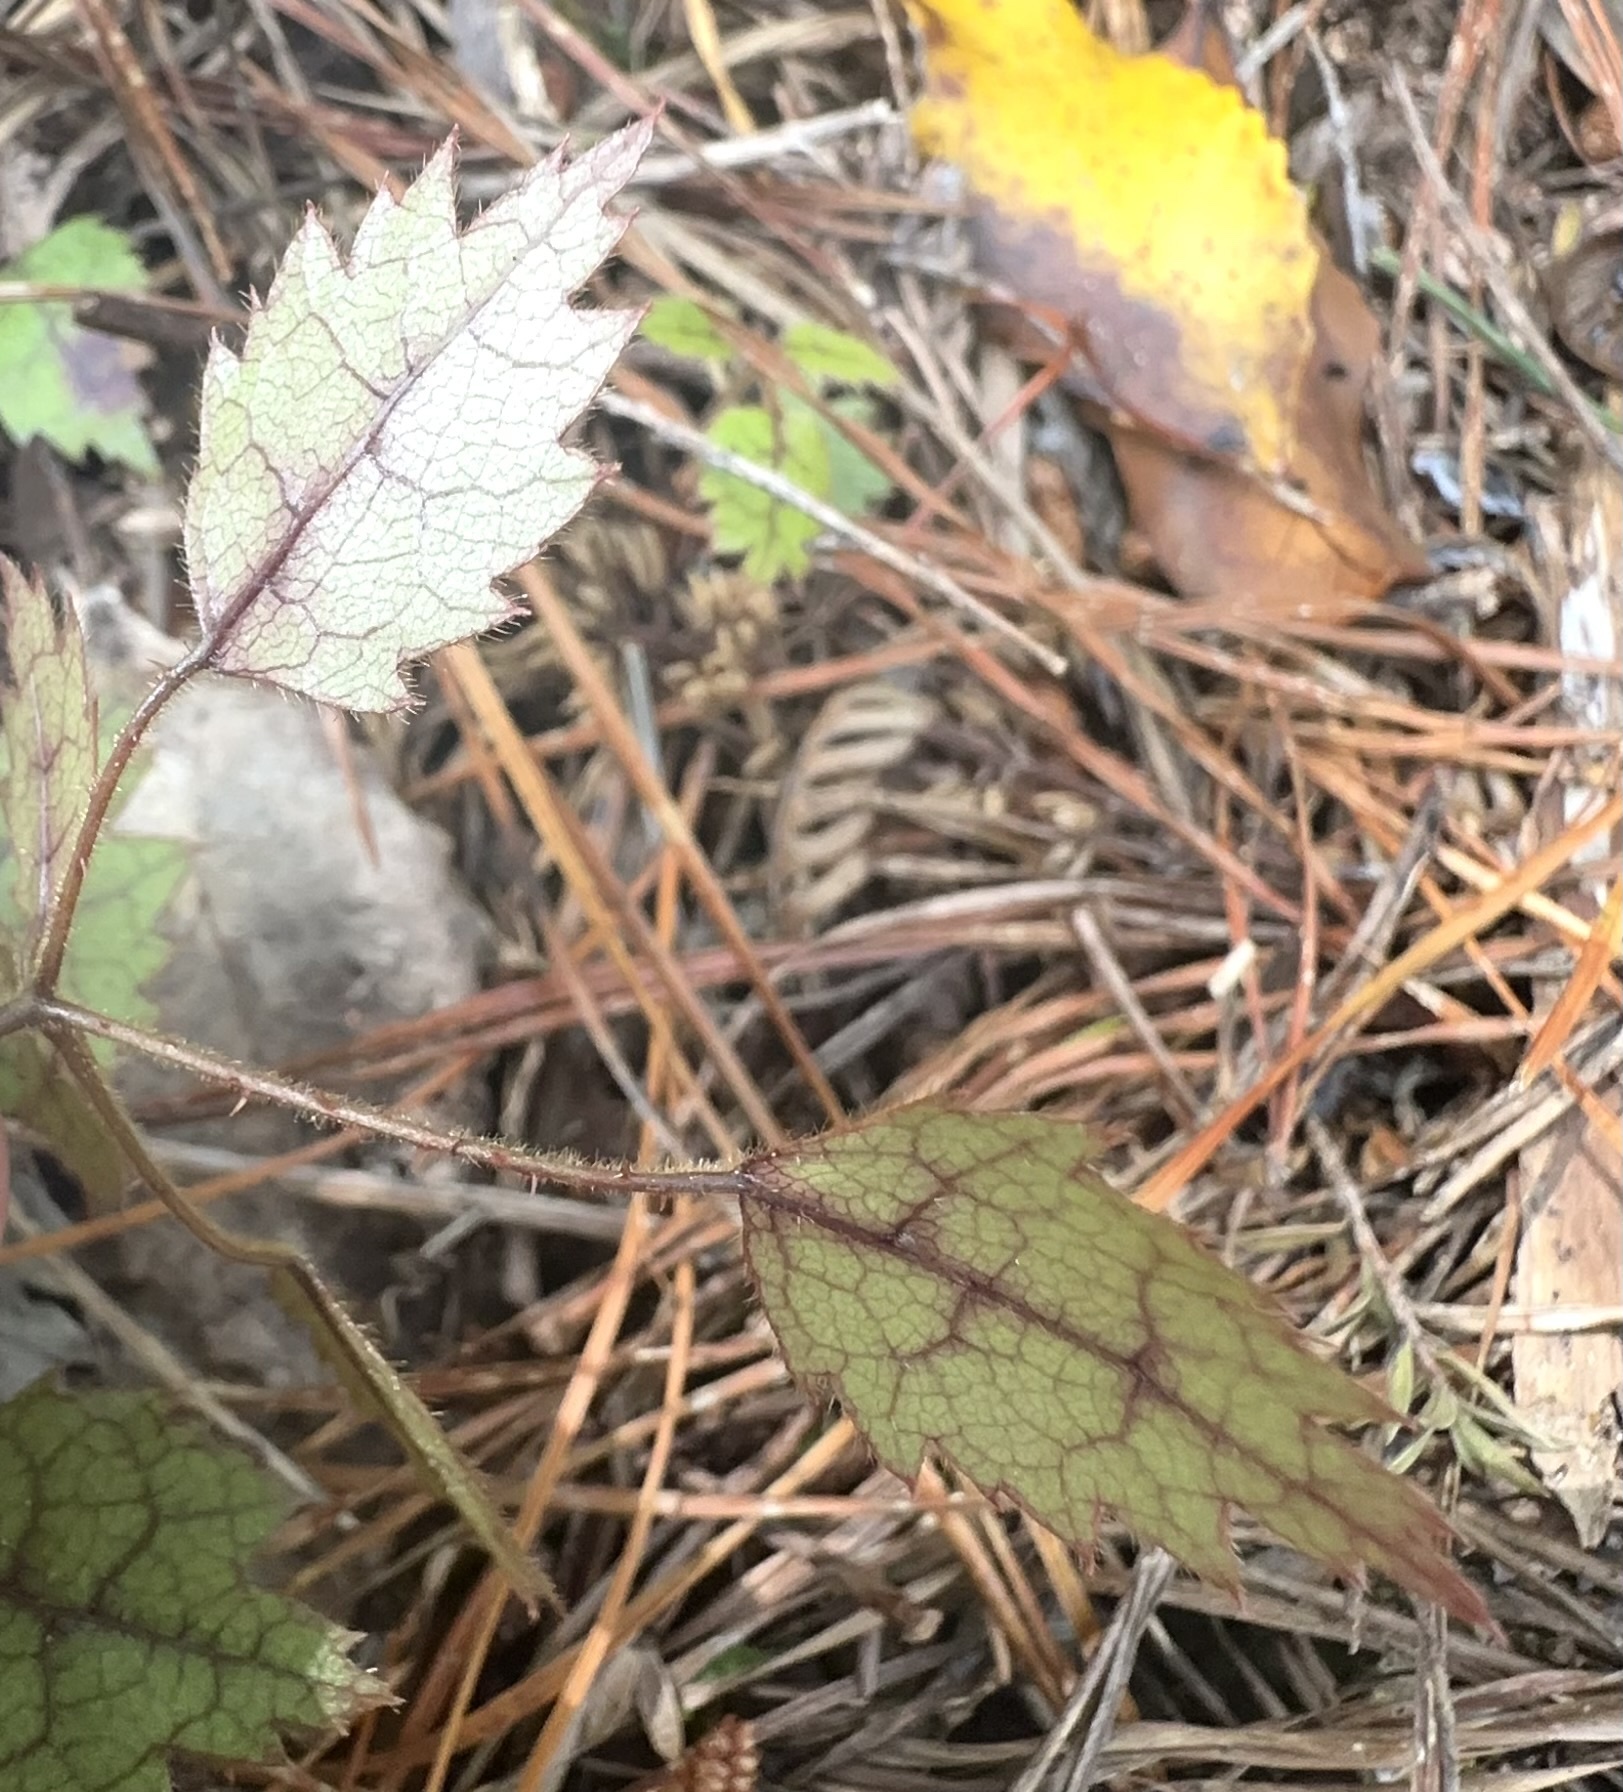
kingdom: Plantae
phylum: Tracheophyta
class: Magnoliopsida
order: Rosales
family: Rosaceae
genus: Rubus
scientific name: Rubus australis
